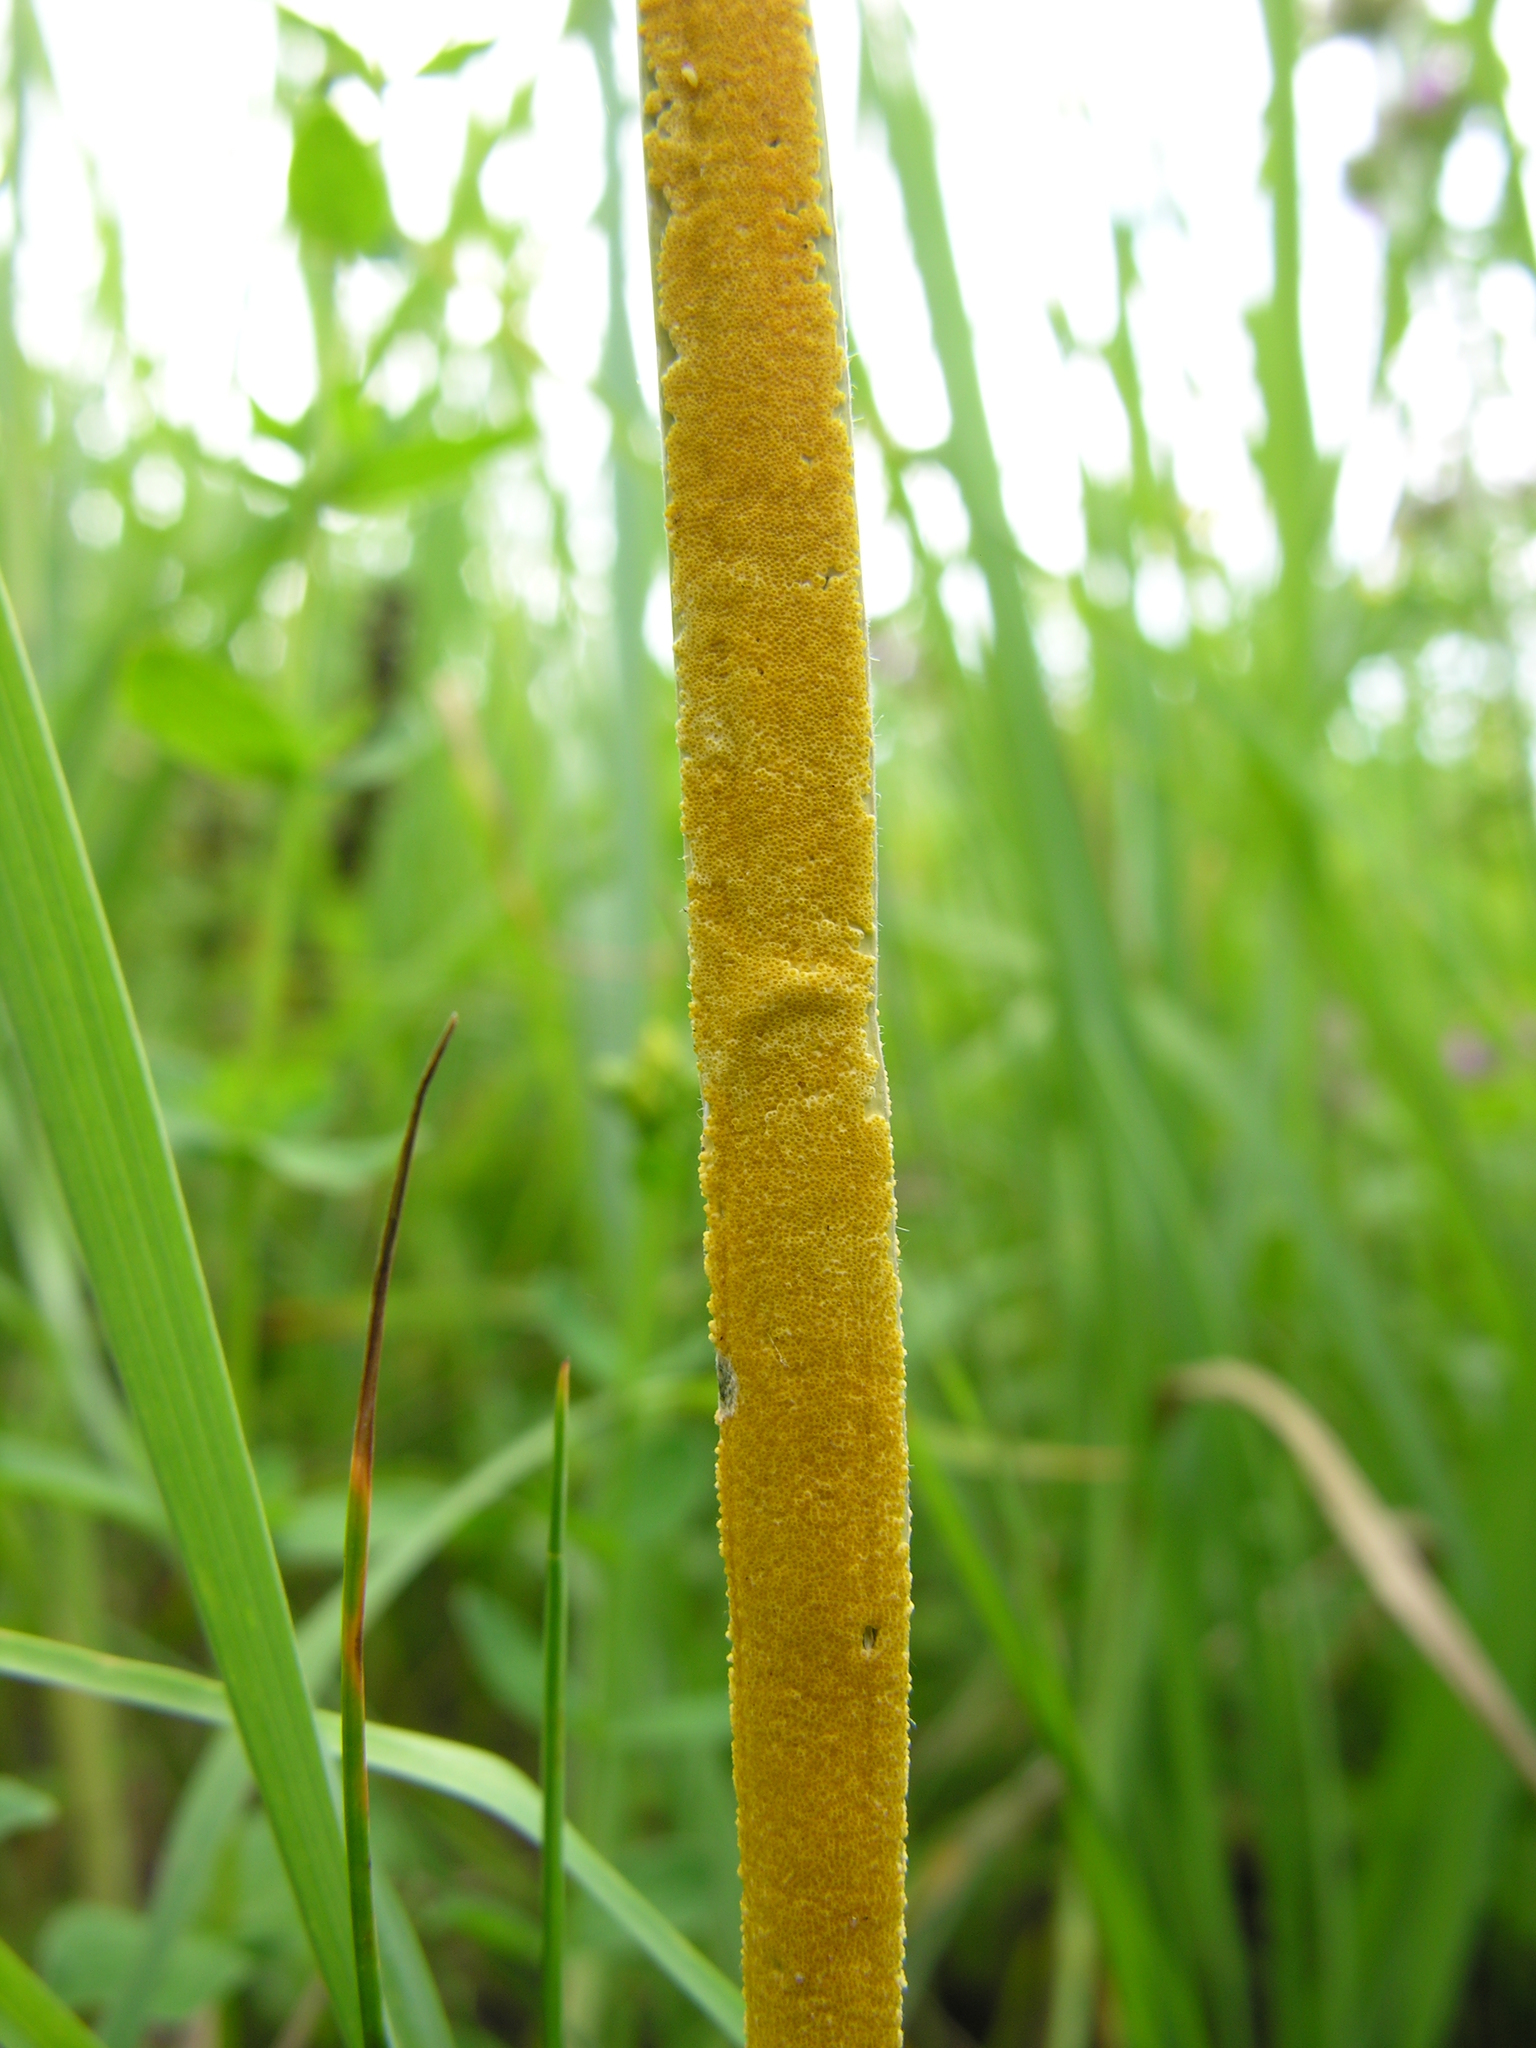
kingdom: Fungi
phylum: Ascomycota
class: Sordariomycetes
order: Hypocreales
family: Clavicipitaceae
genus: Epichloe
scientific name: Epichloe typhina
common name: Choke
